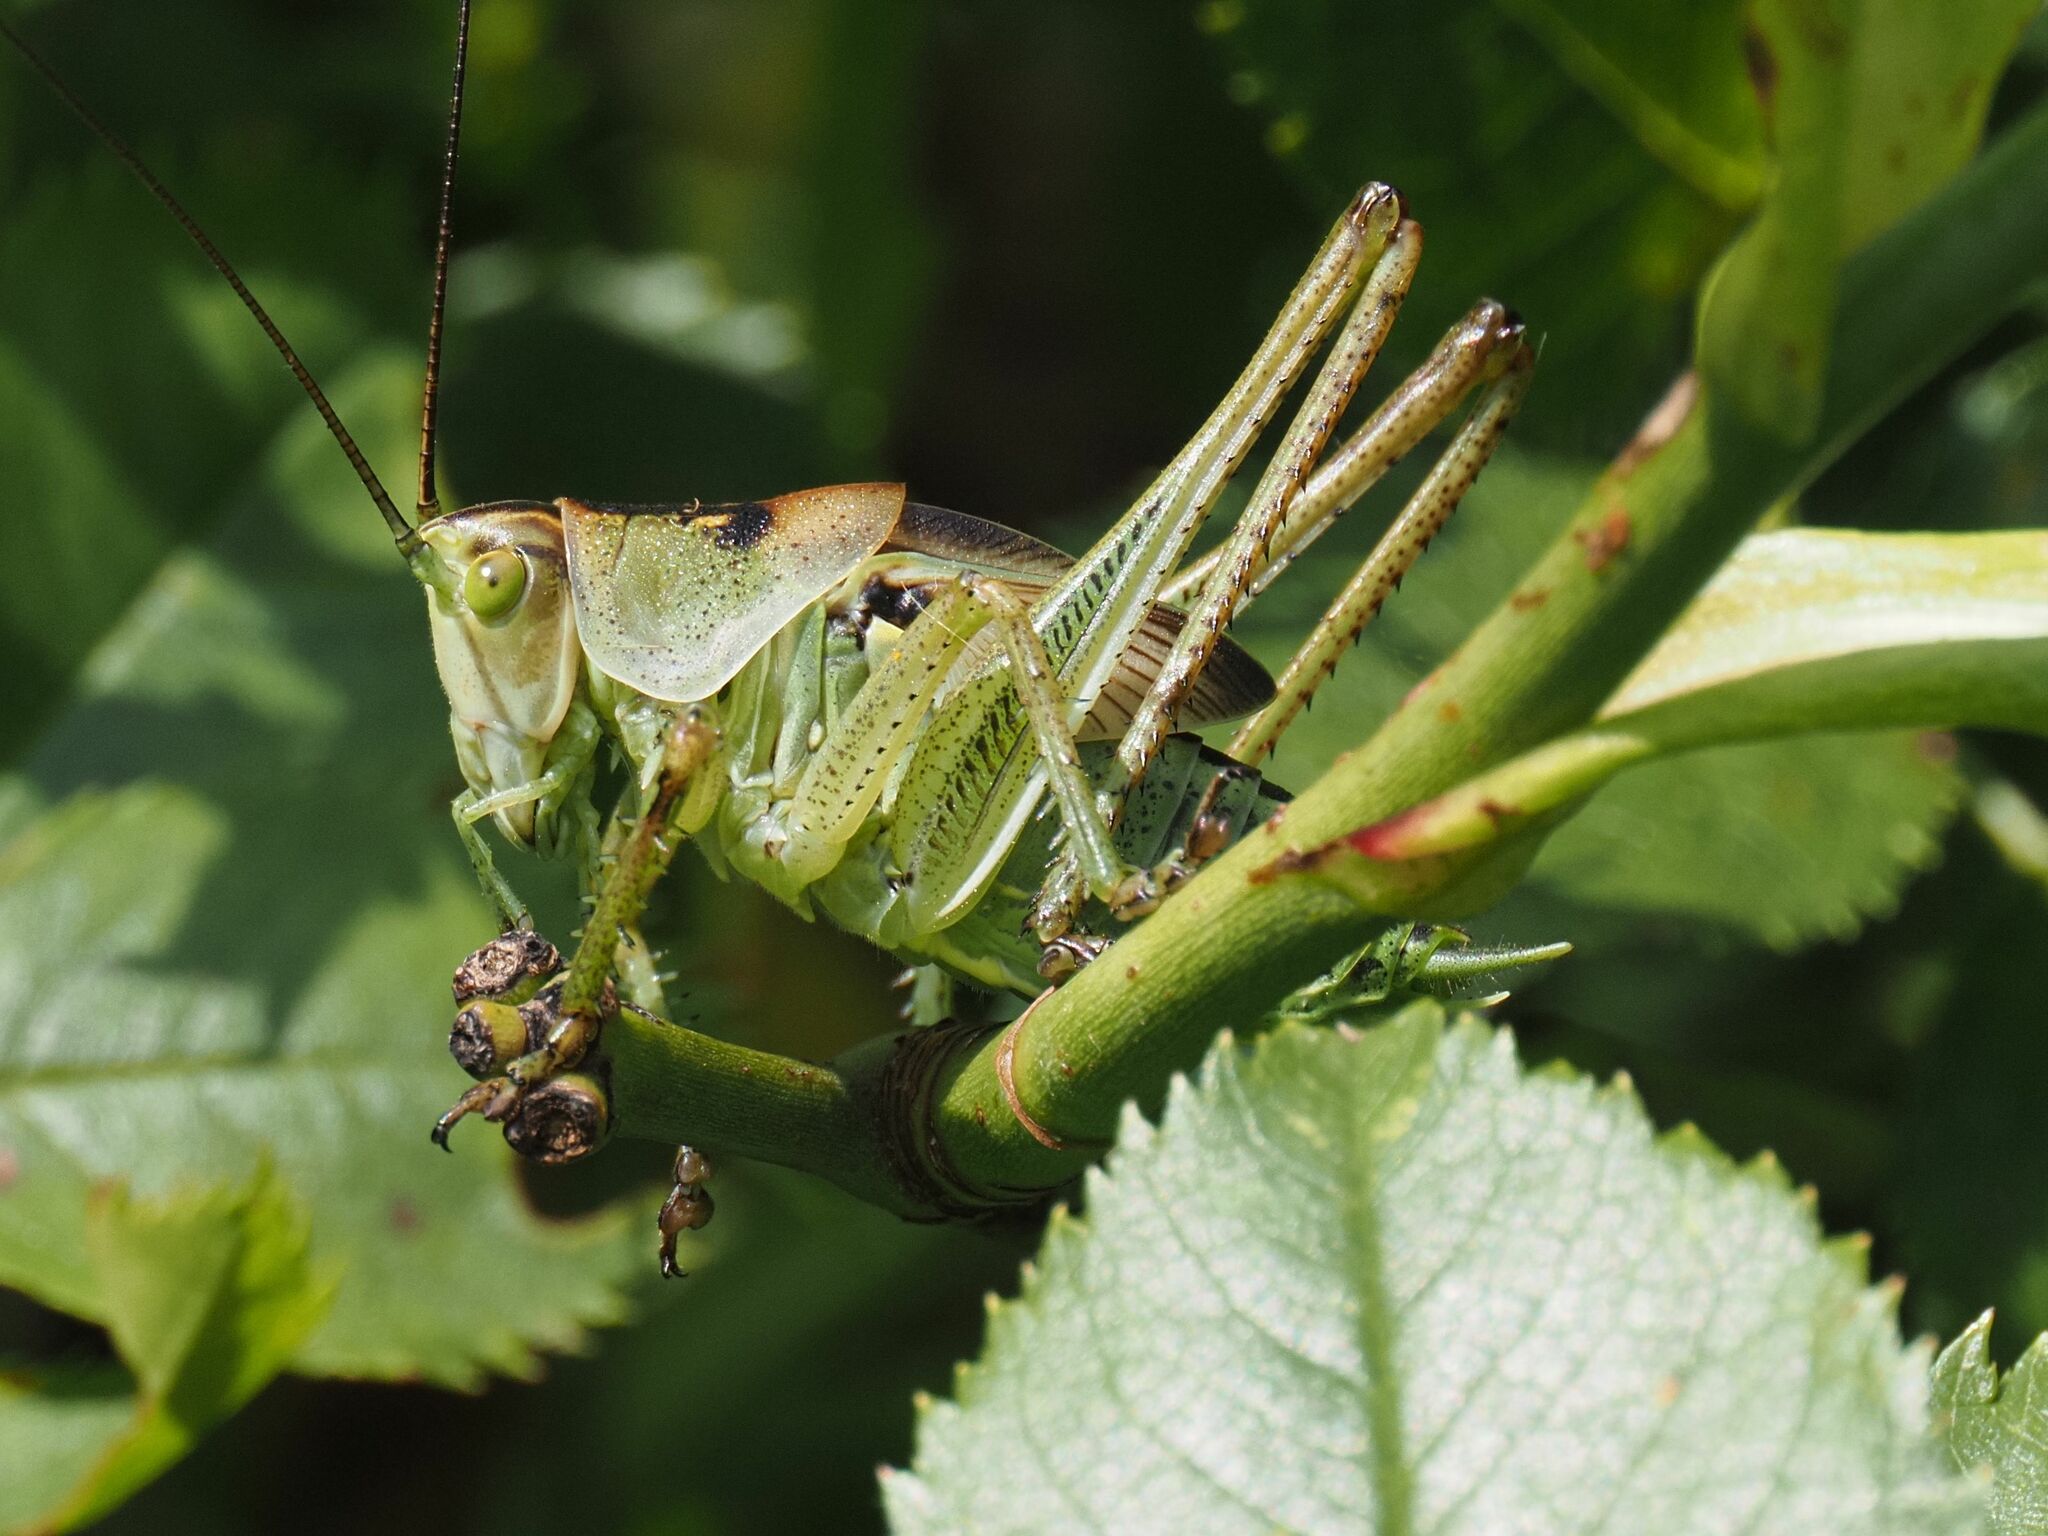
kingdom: Animalia
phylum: Arthropoda
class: Insecta
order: Orthoptera
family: Tettigoniidae
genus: Tettigonia
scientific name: Tettigonia viridissima
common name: Great green bush-cricket
